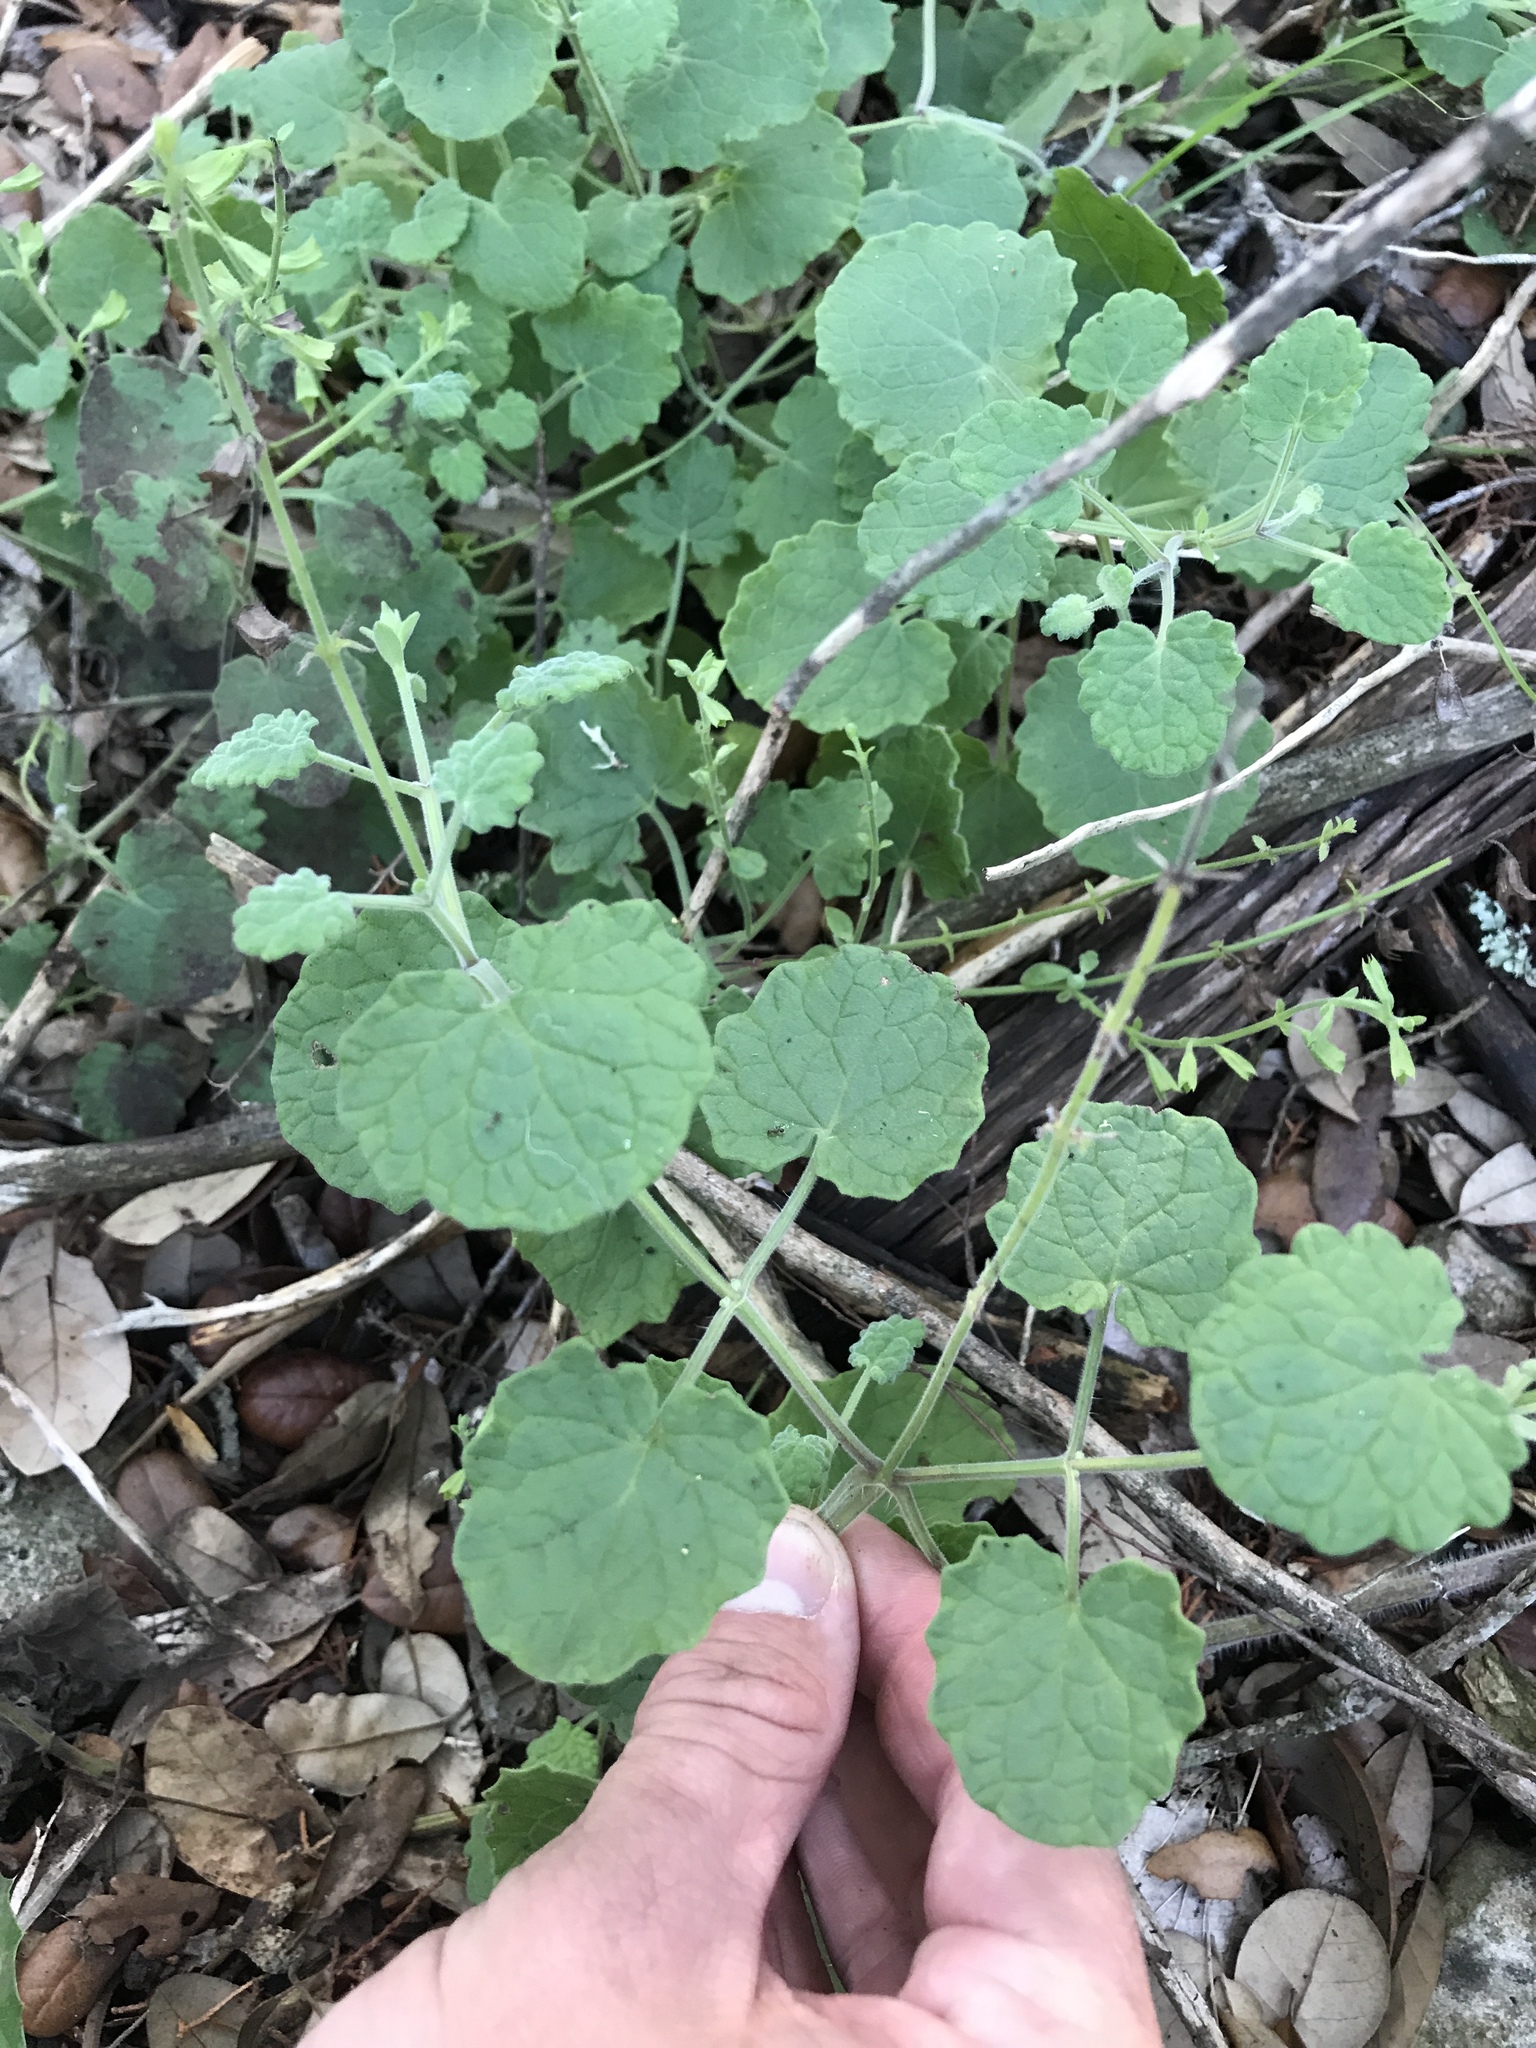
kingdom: Plantae
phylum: Tracheophyta
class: Magnoliopsida
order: Lamiales
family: Lamiaceae
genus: Salvia
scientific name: Salvia roemeriana
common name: Cedar sage
